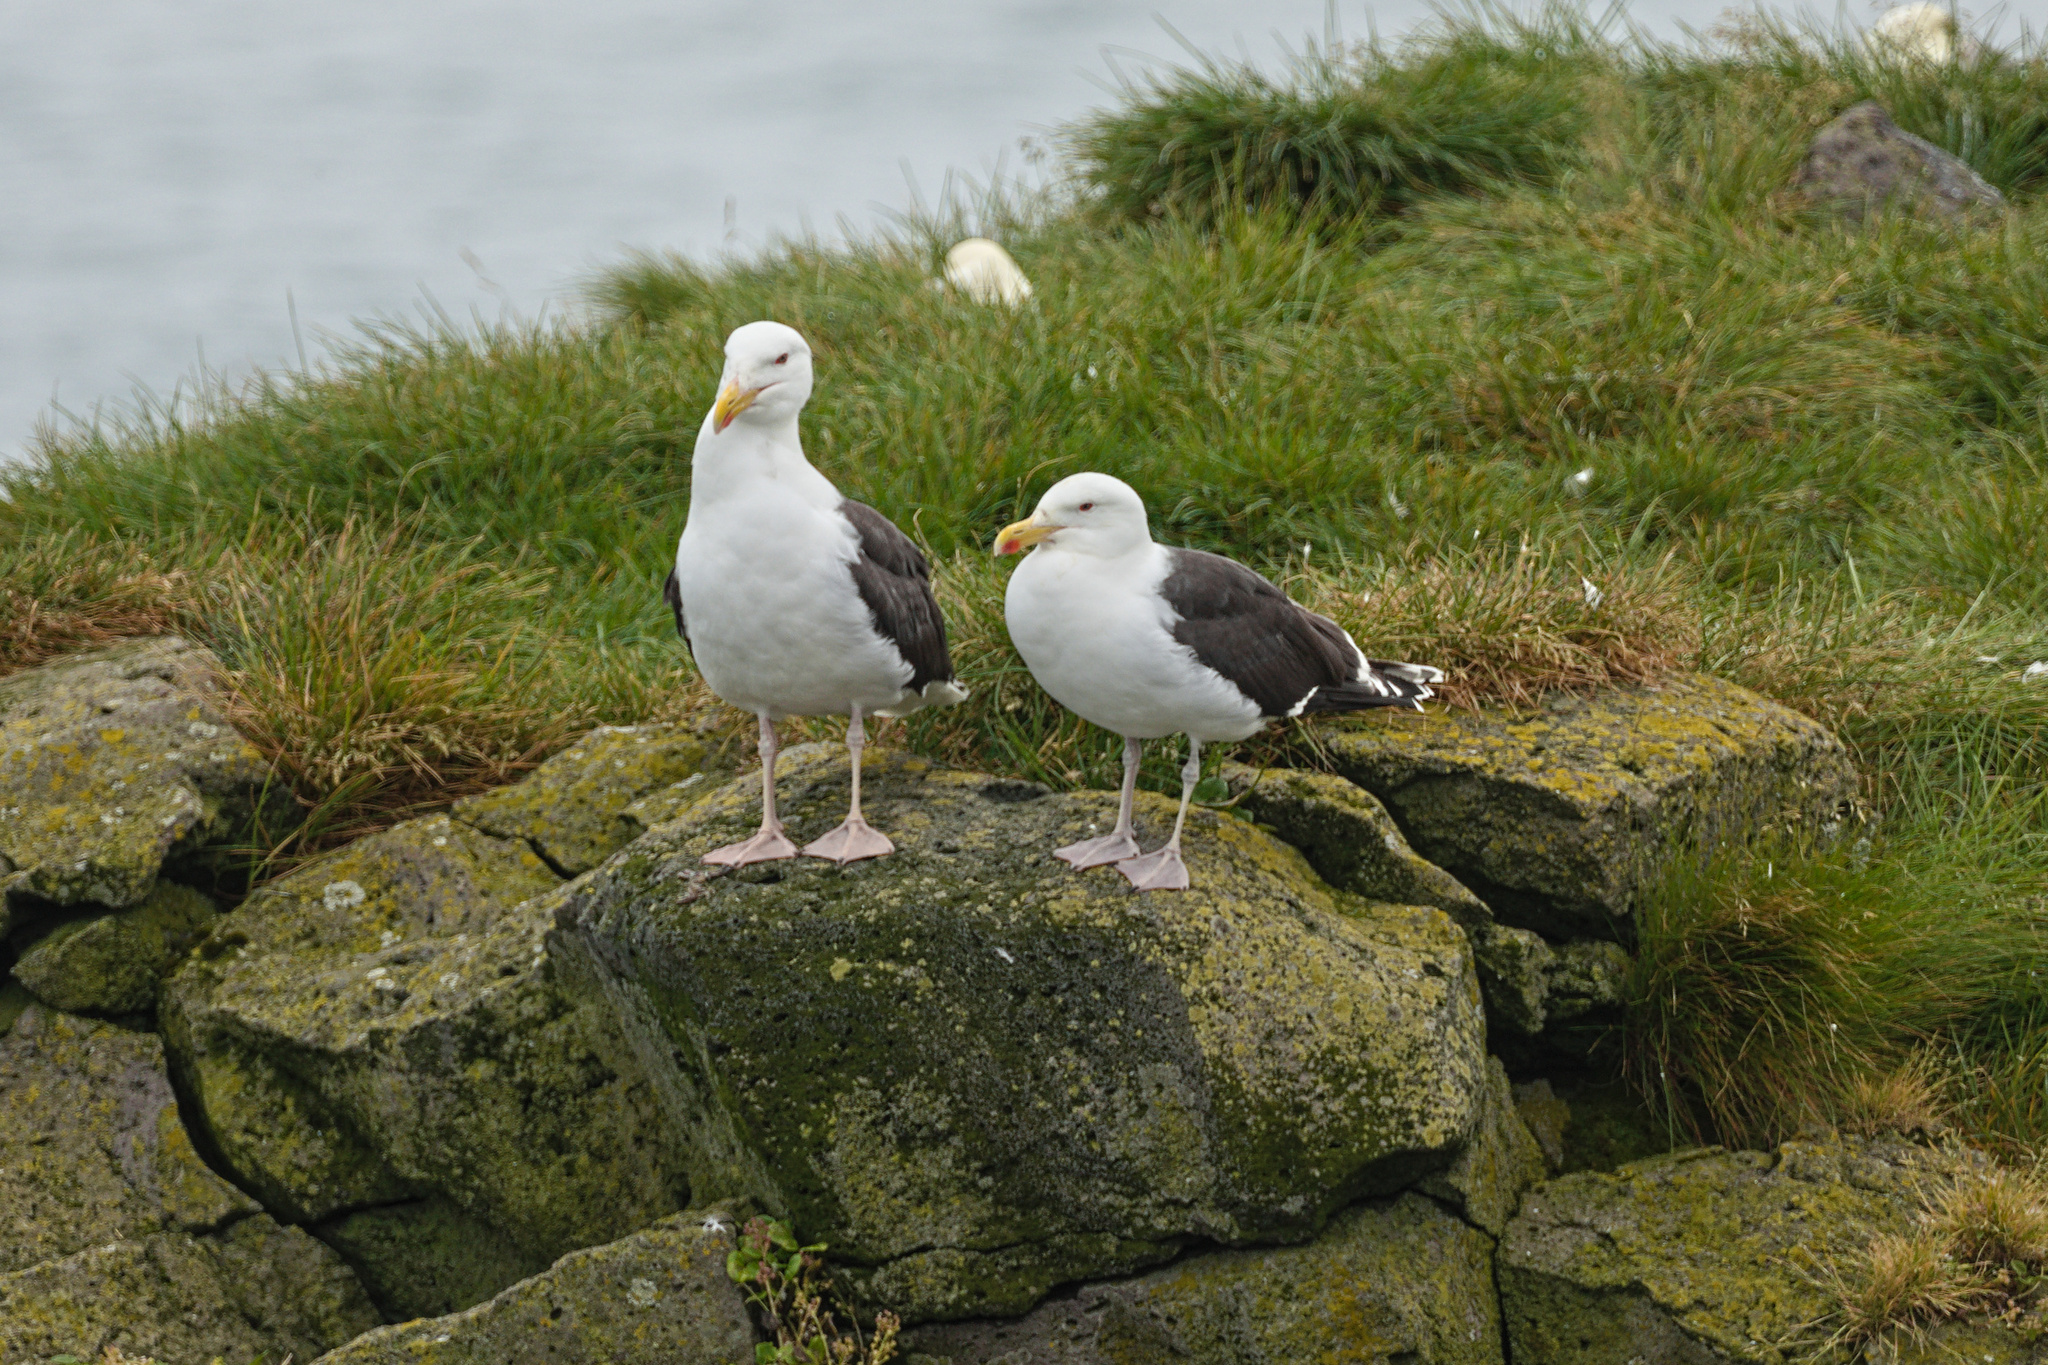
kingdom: Animalia
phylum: Chordata
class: Aves
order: Charadriiformes
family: Laridae
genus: Larus
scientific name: Larus marinus
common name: Great black-backed gull
